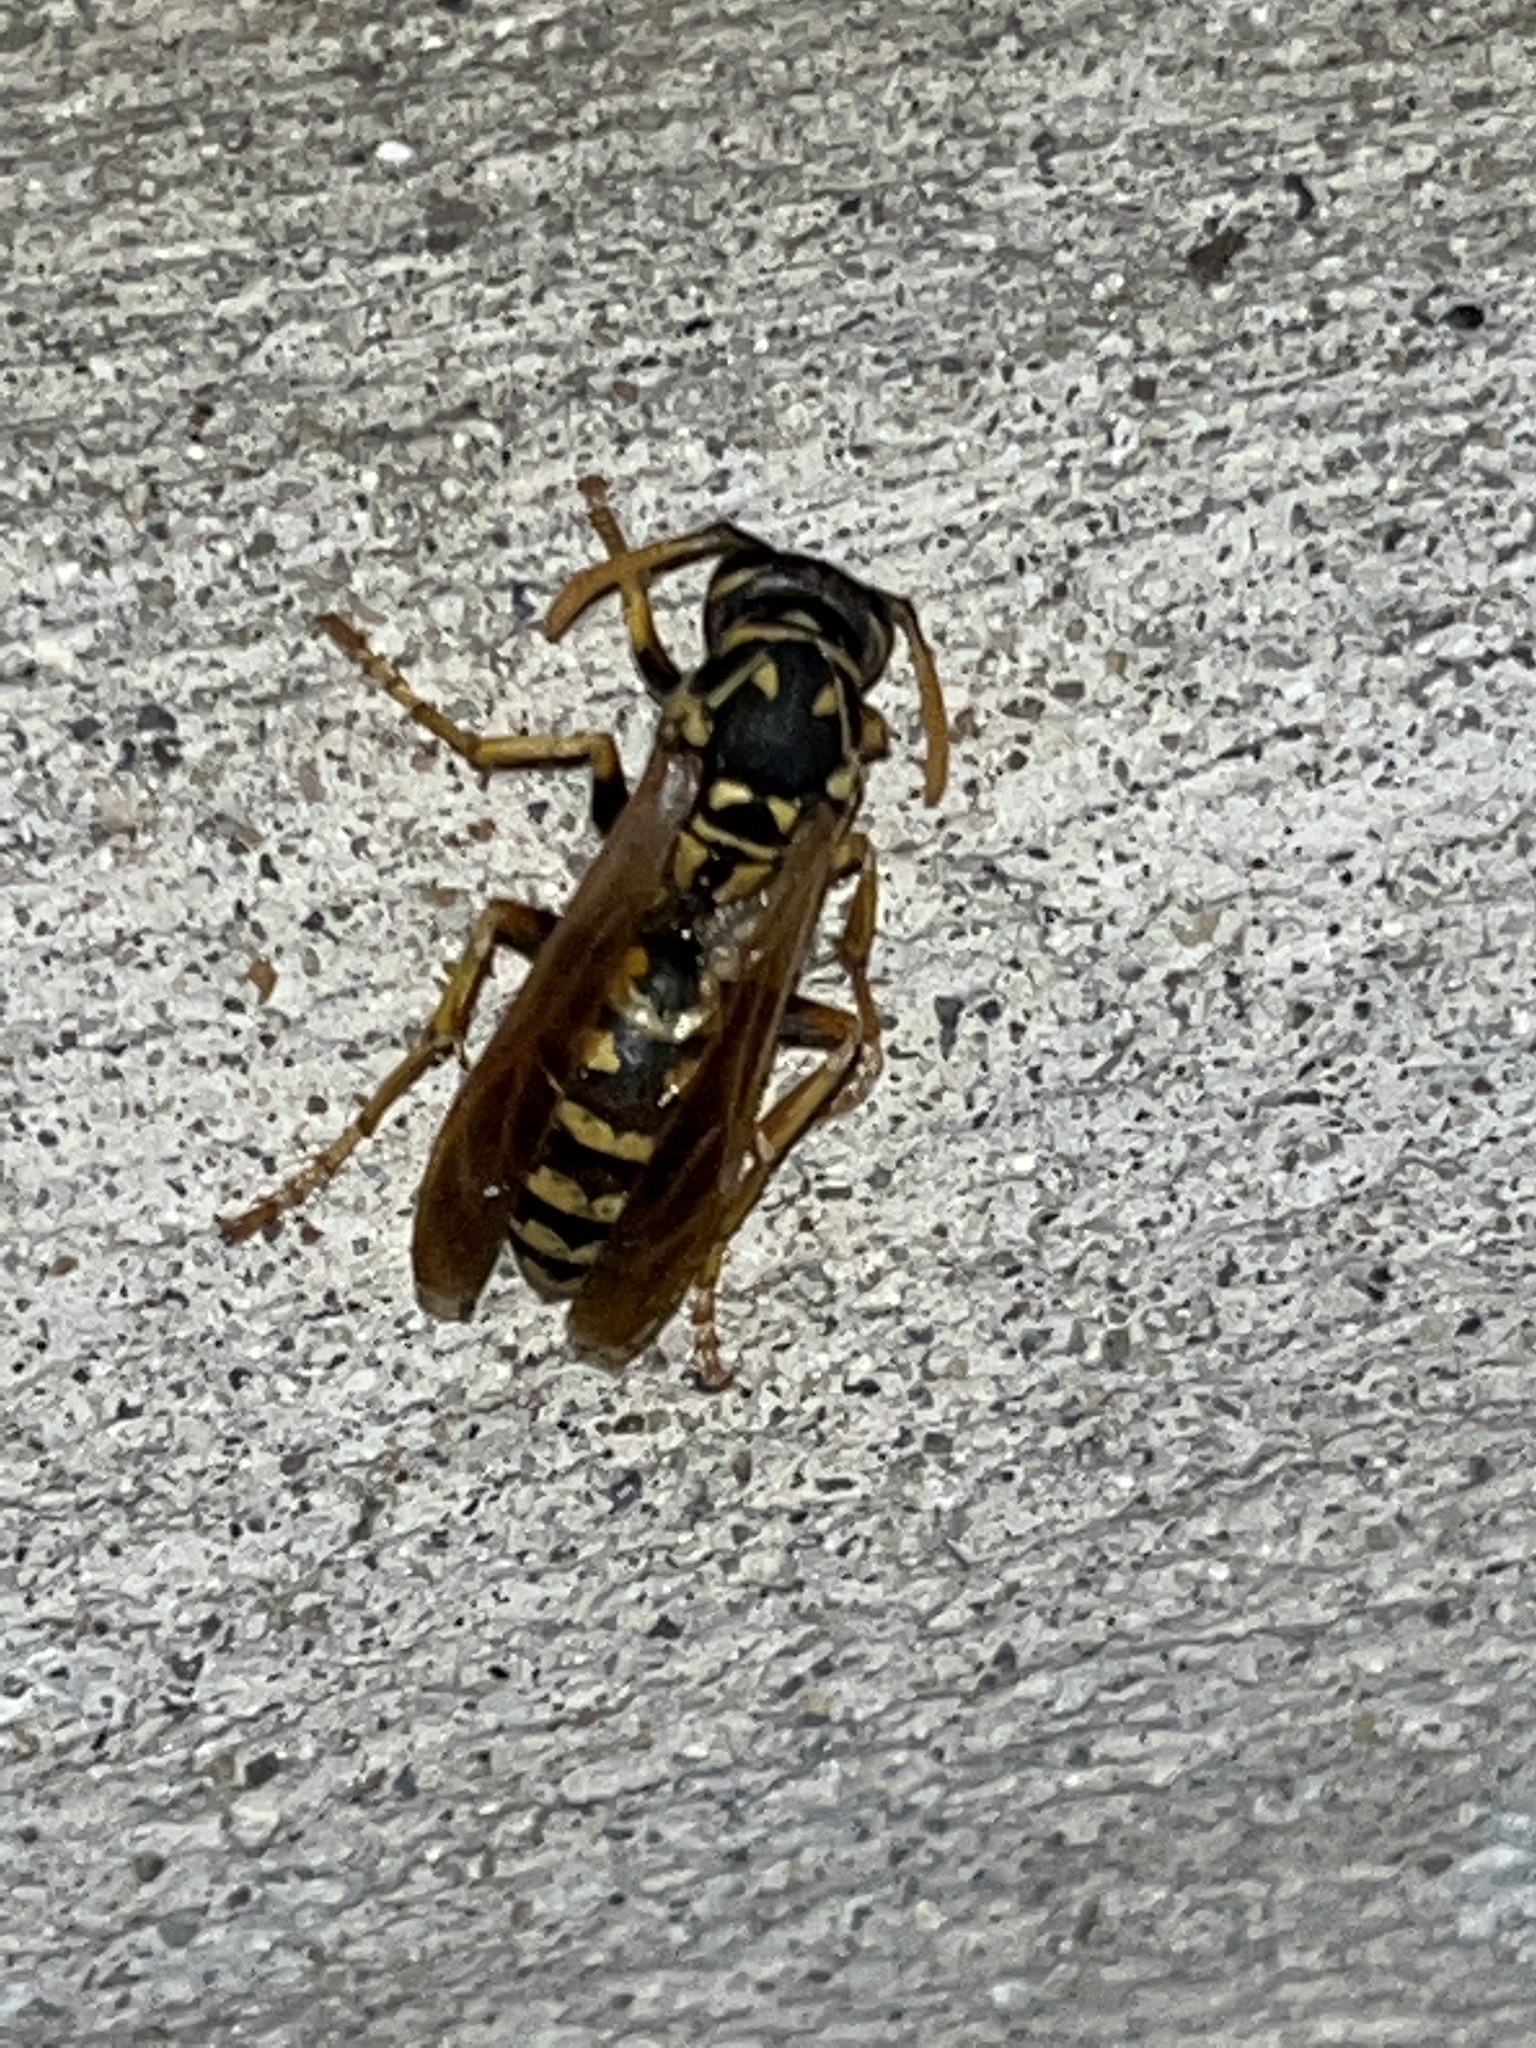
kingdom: Animalia
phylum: Arthropoda
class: Insecta
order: Hymenoptera
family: Eumenidae
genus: Polistes
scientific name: Polistes dominula
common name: Paper wasp
